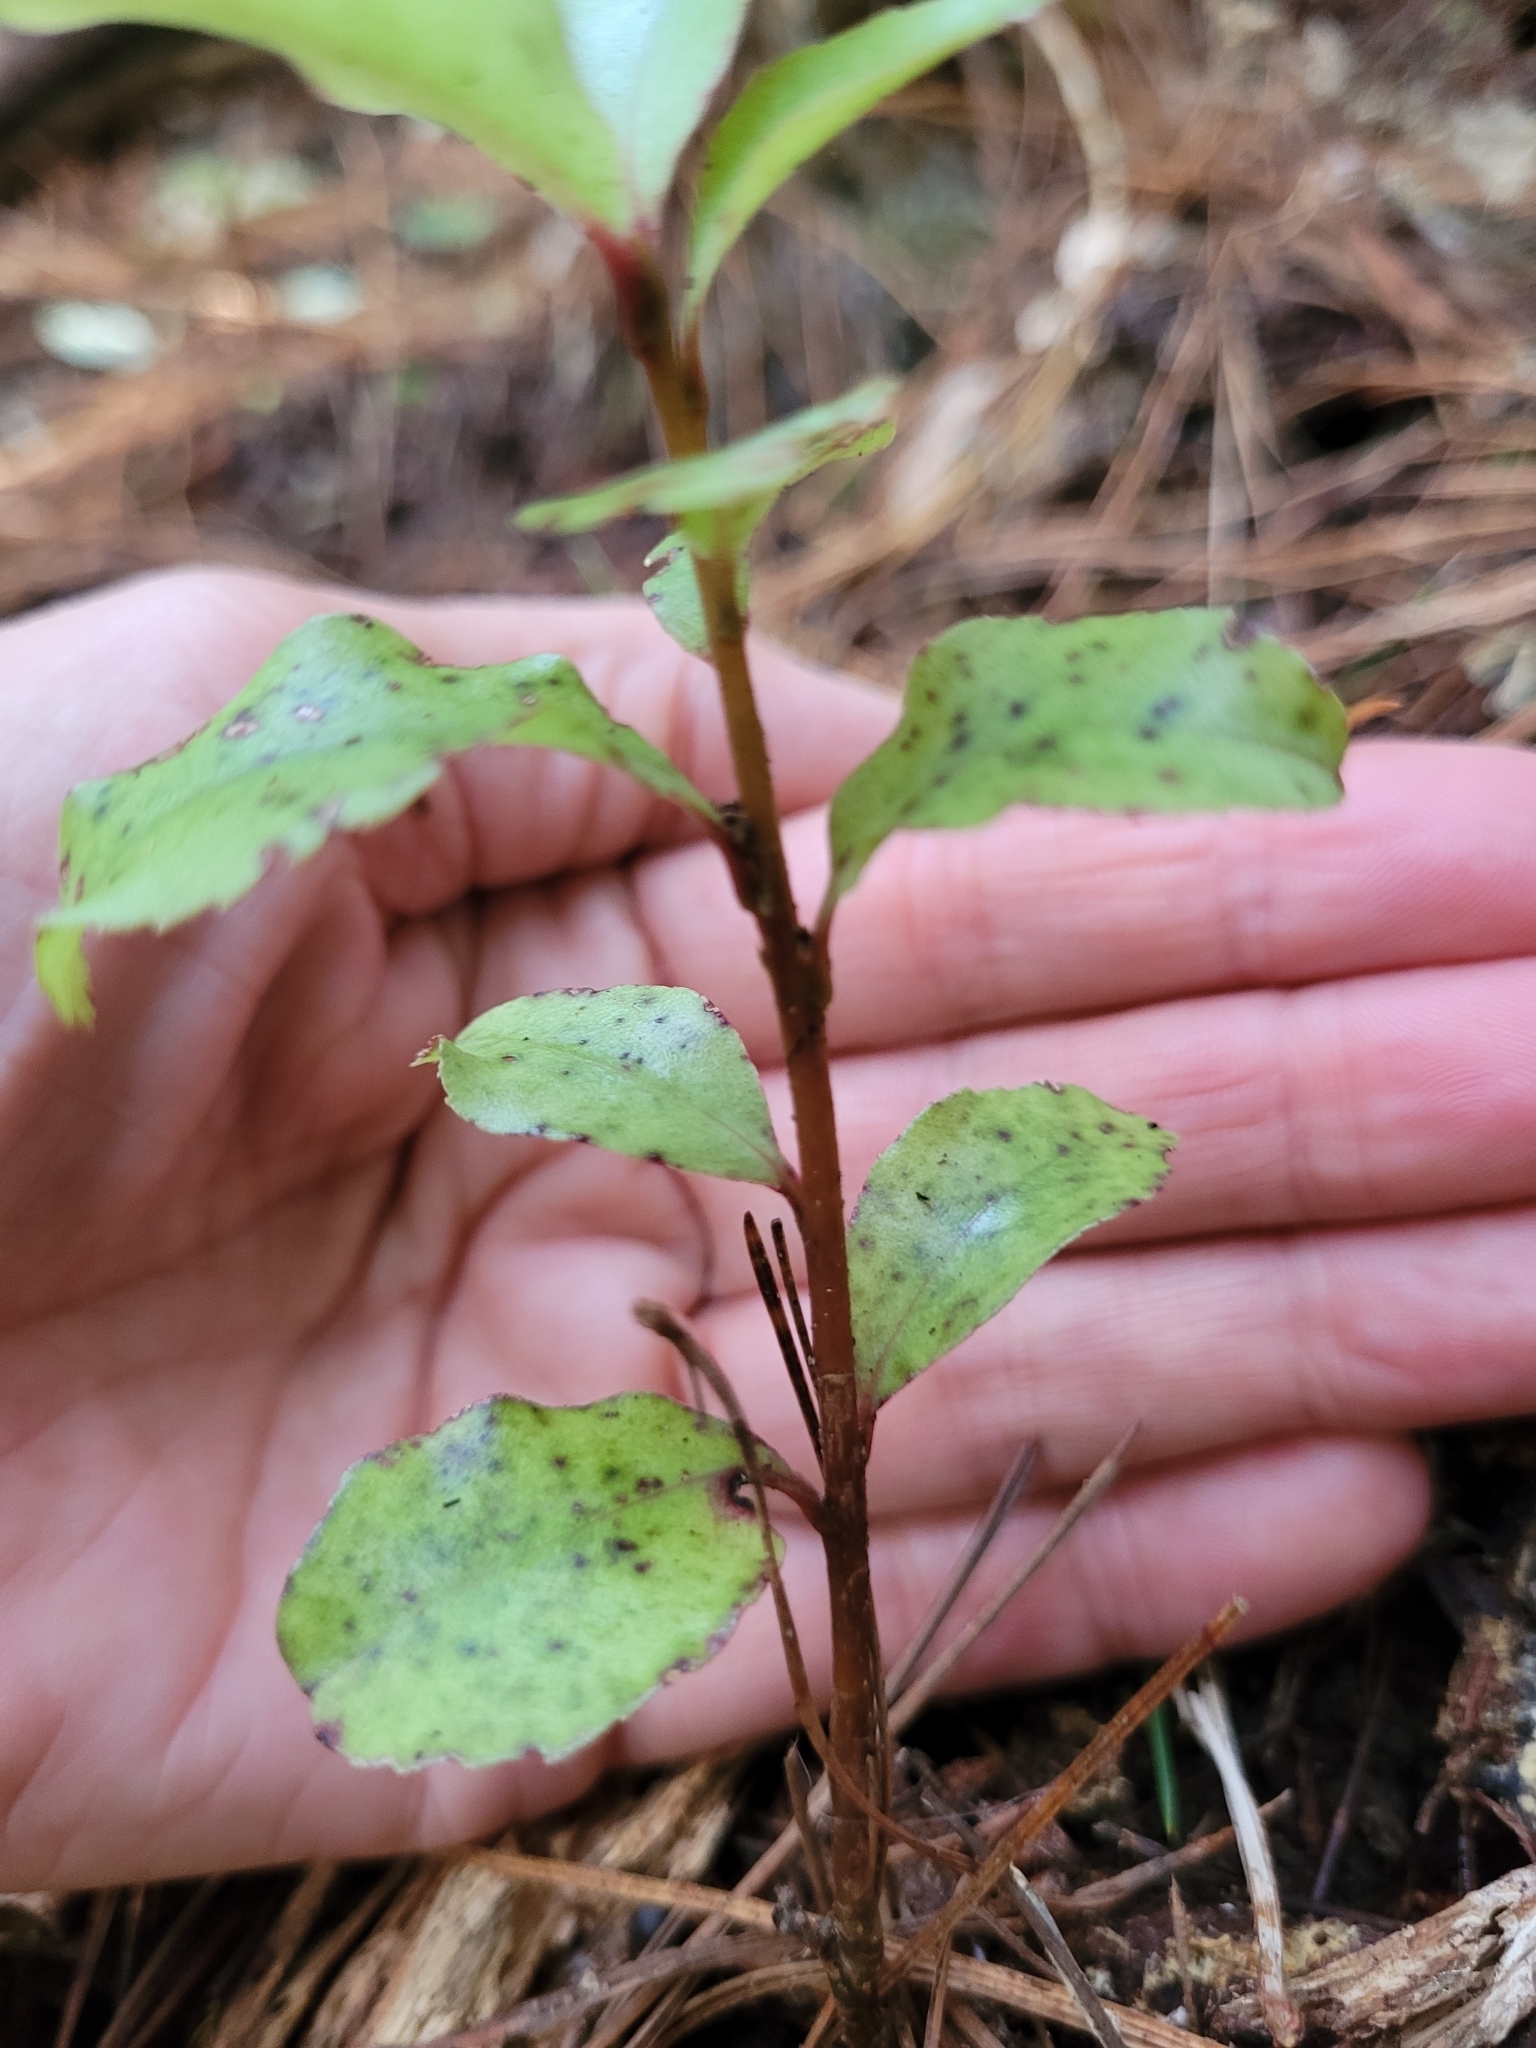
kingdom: Plantae
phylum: Tracheophyta
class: Magnoliopsida
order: Ericales
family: Primulaceae
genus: Myrsine
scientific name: Myrsine australis
